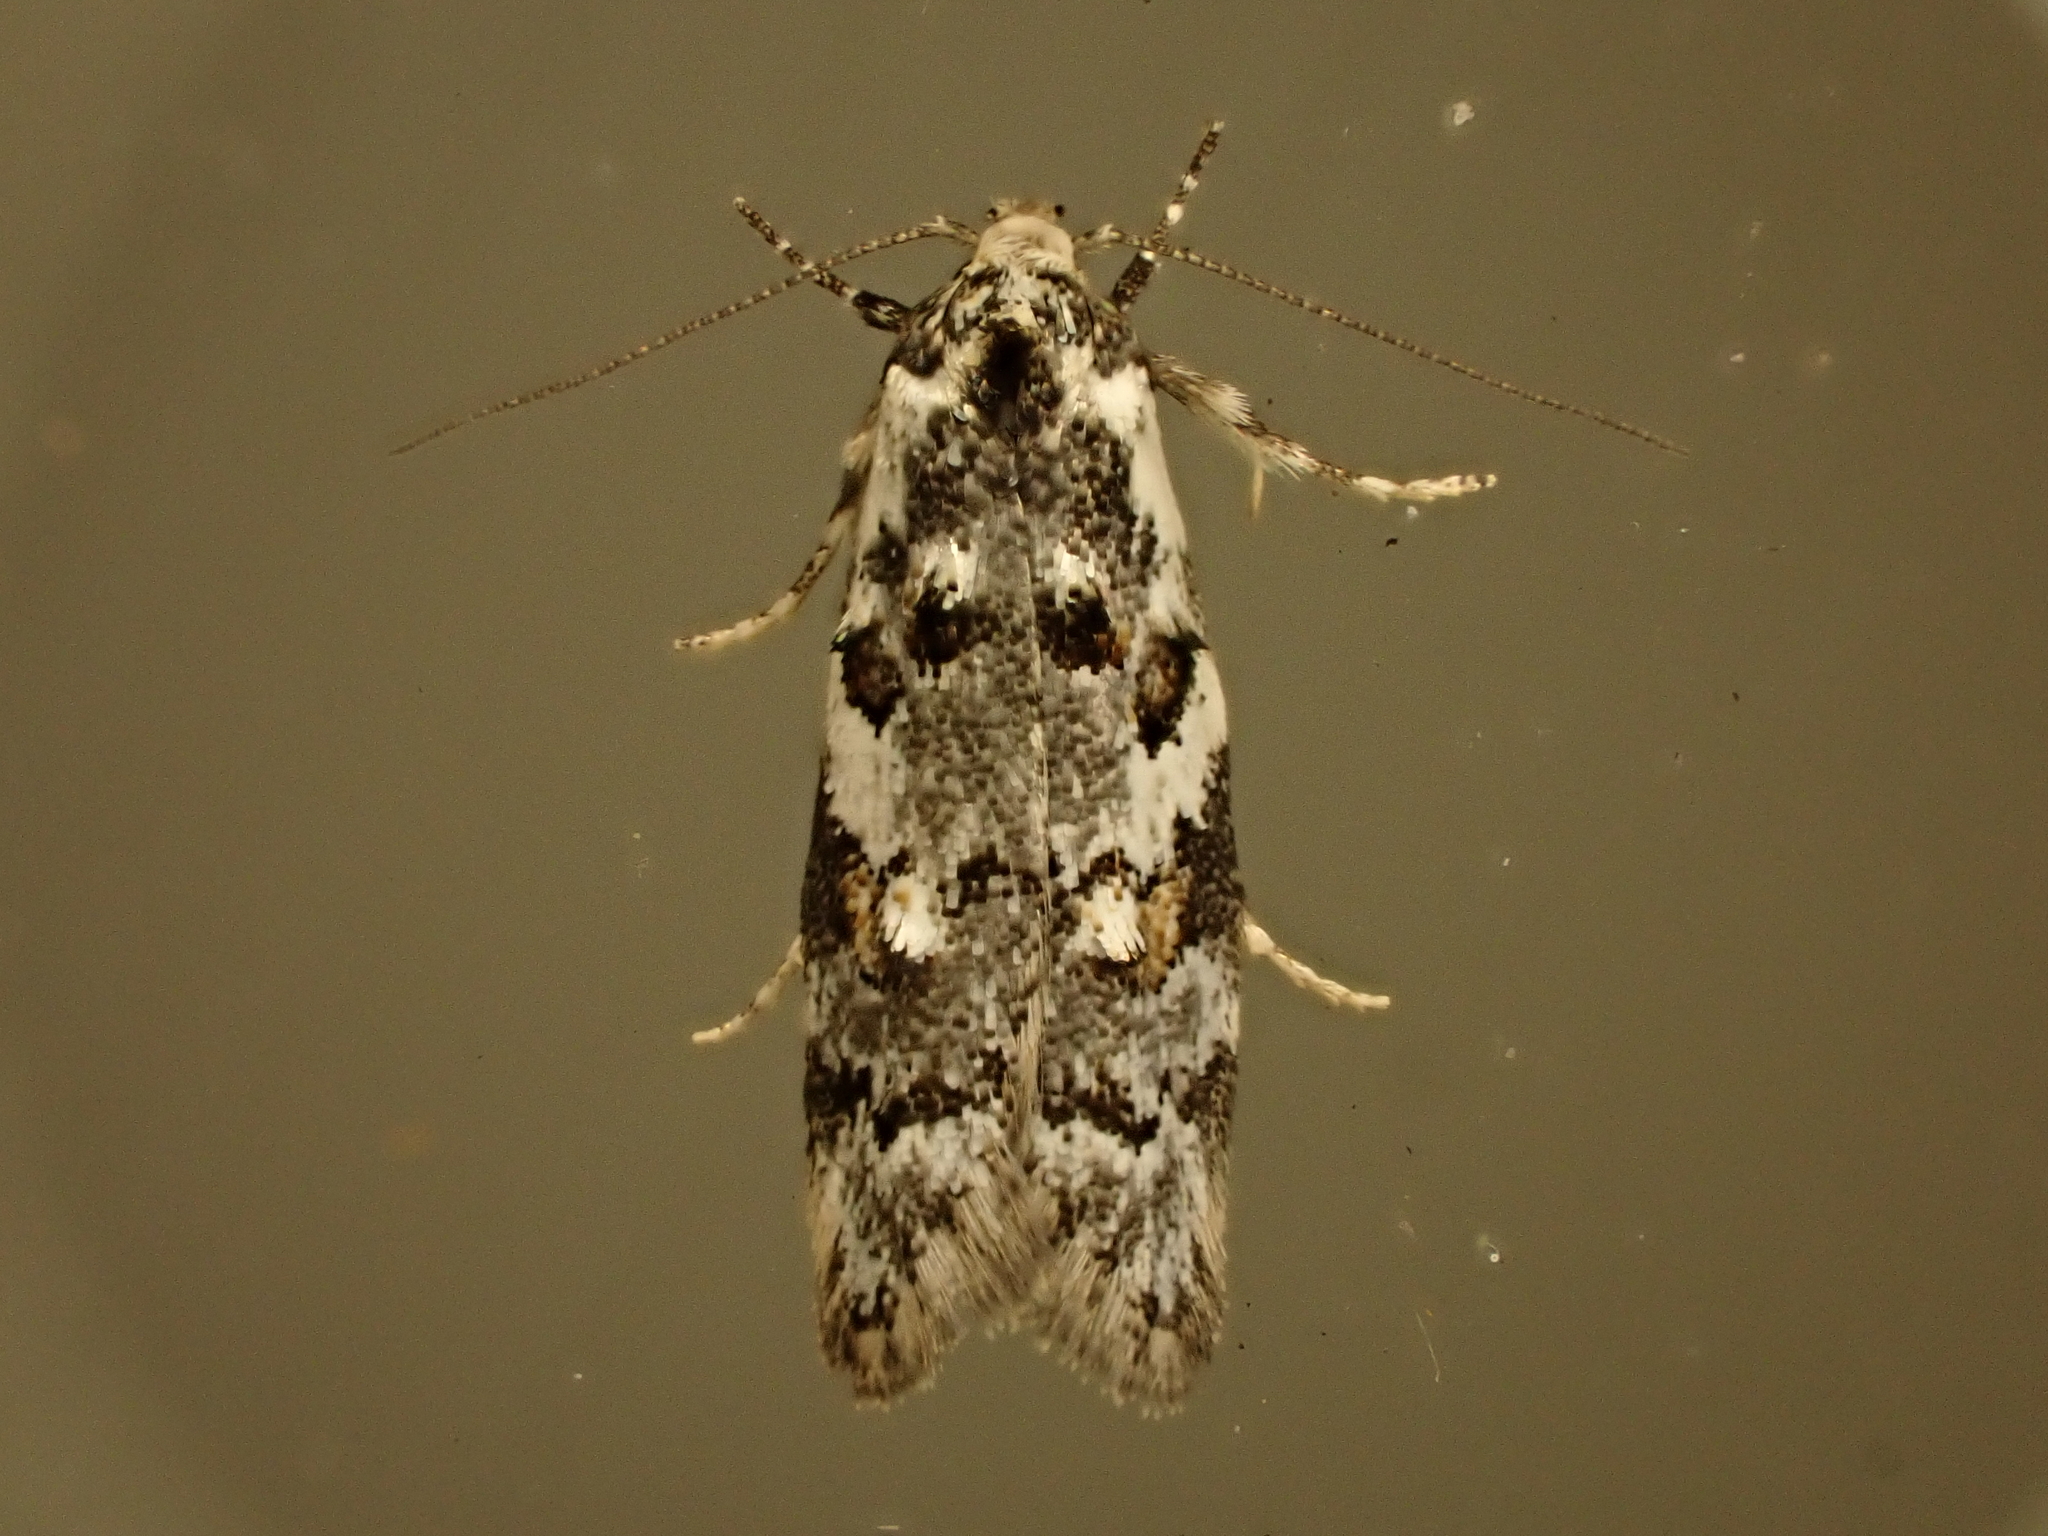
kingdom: Animalia
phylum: Arthropoda
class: Insecta
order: Lepidoptera
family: Oecophoridae
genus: Trachypepla
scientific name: Trachypepla galaxias
